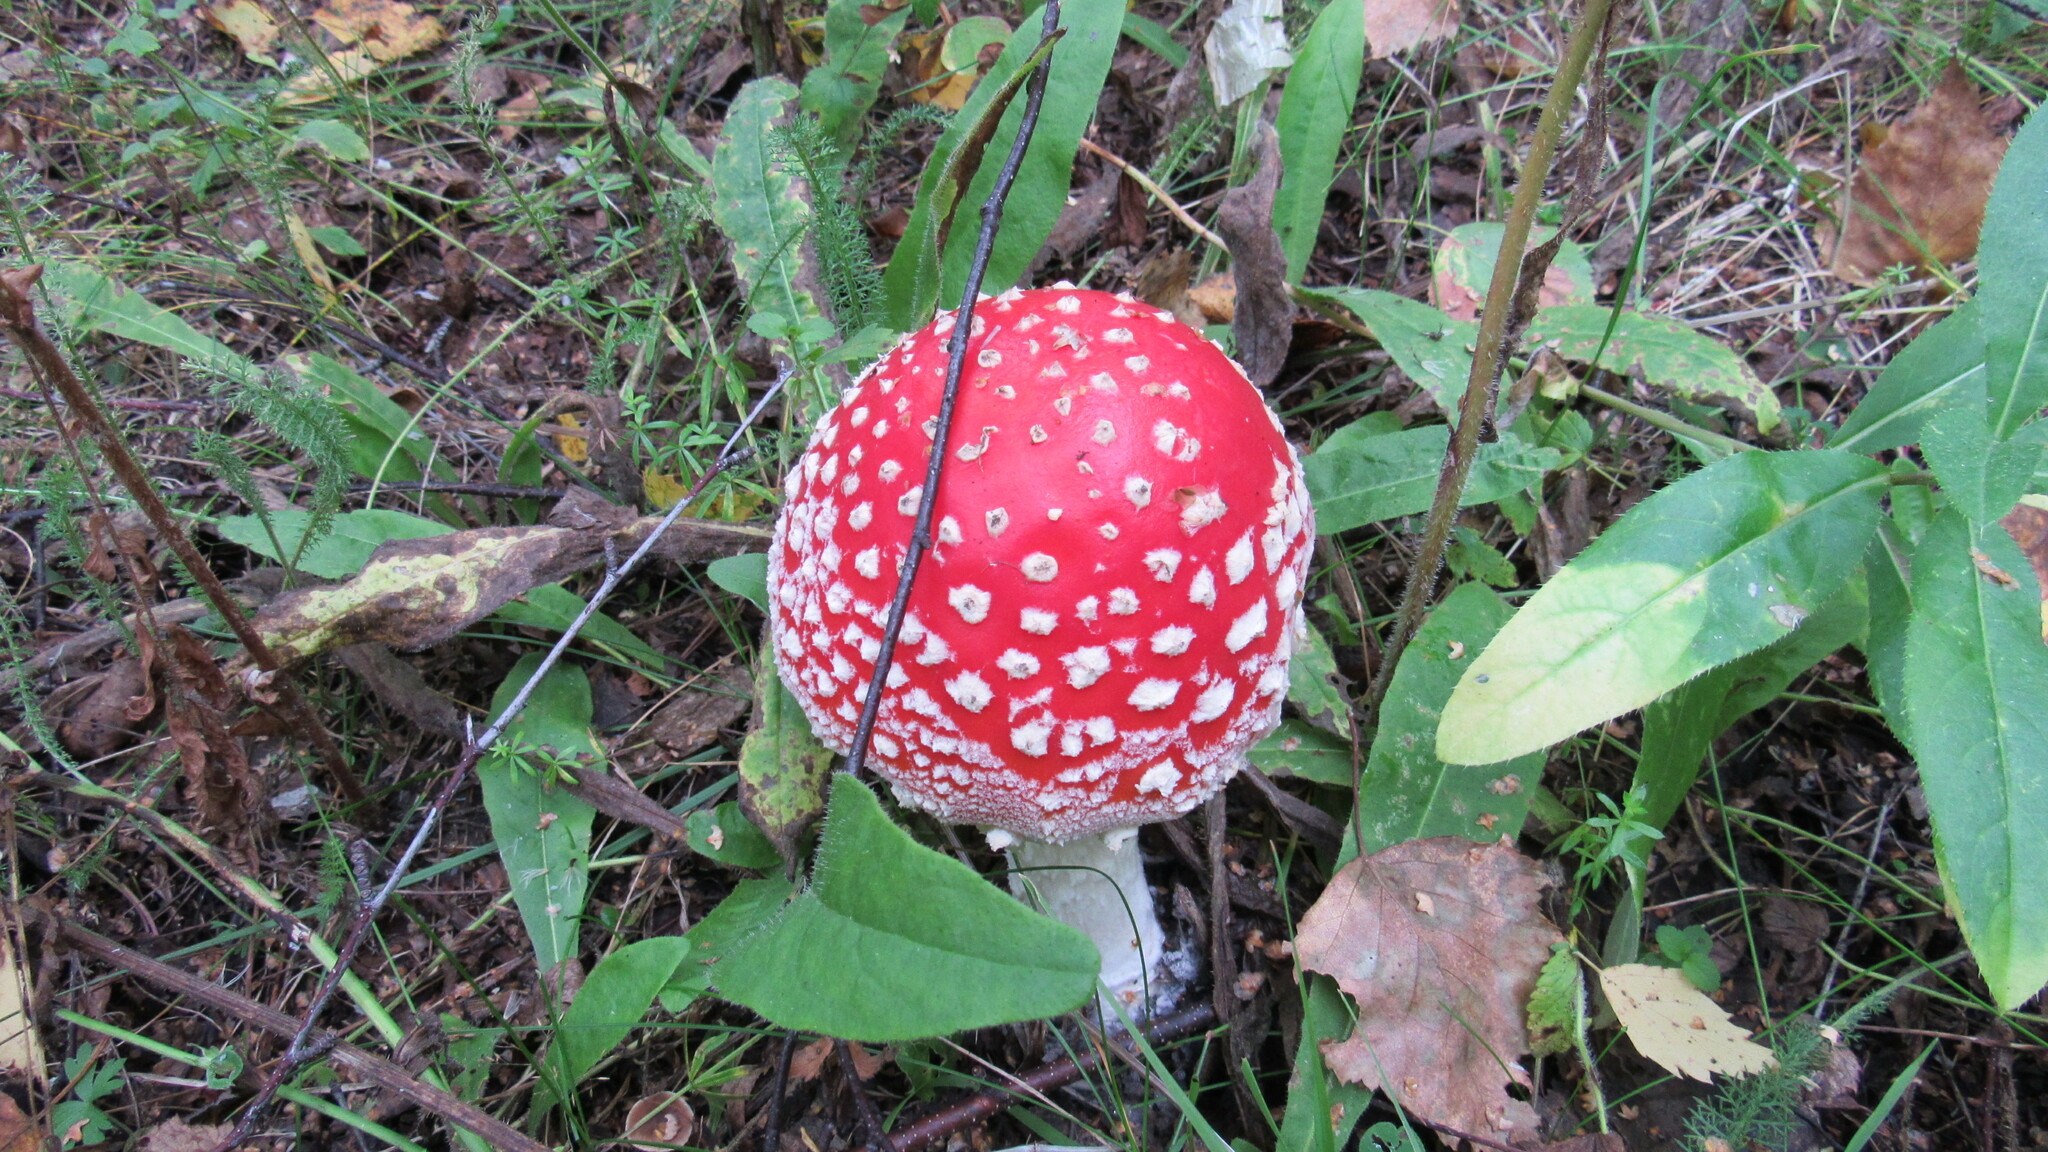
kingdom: Fungi
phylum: Basidiomycota
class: Agaricomycetes
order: Agaricales
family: Amanitaceae
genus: Amanita
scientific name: Amanita muscaria
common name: Fly agaric
